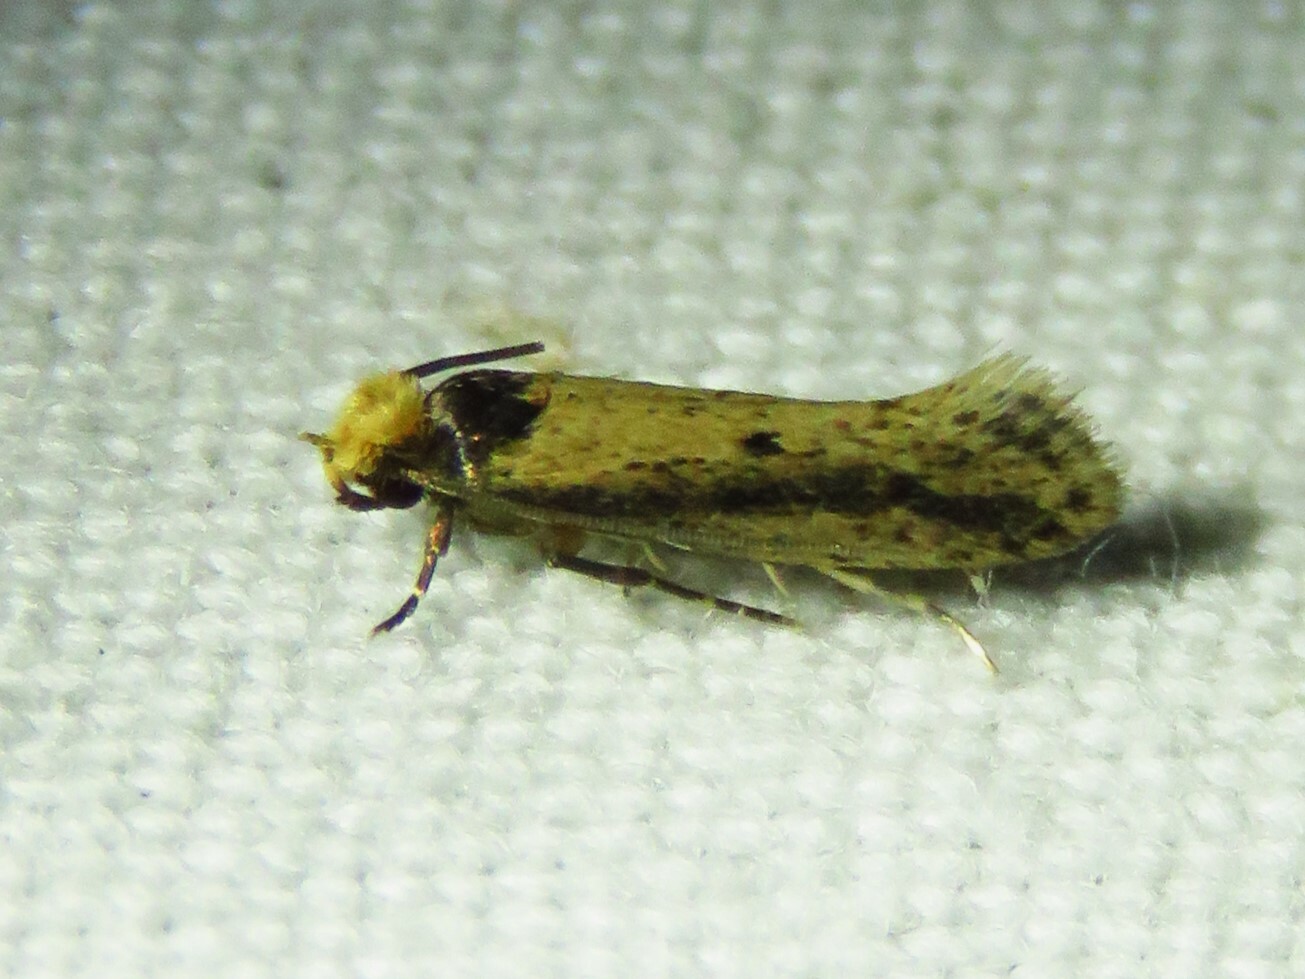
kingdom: Animalia
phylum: Arthropoda
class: Insecta
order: Lepidoptera
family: Tineidae
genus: Tinea
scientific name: Tinea apicimaculella
